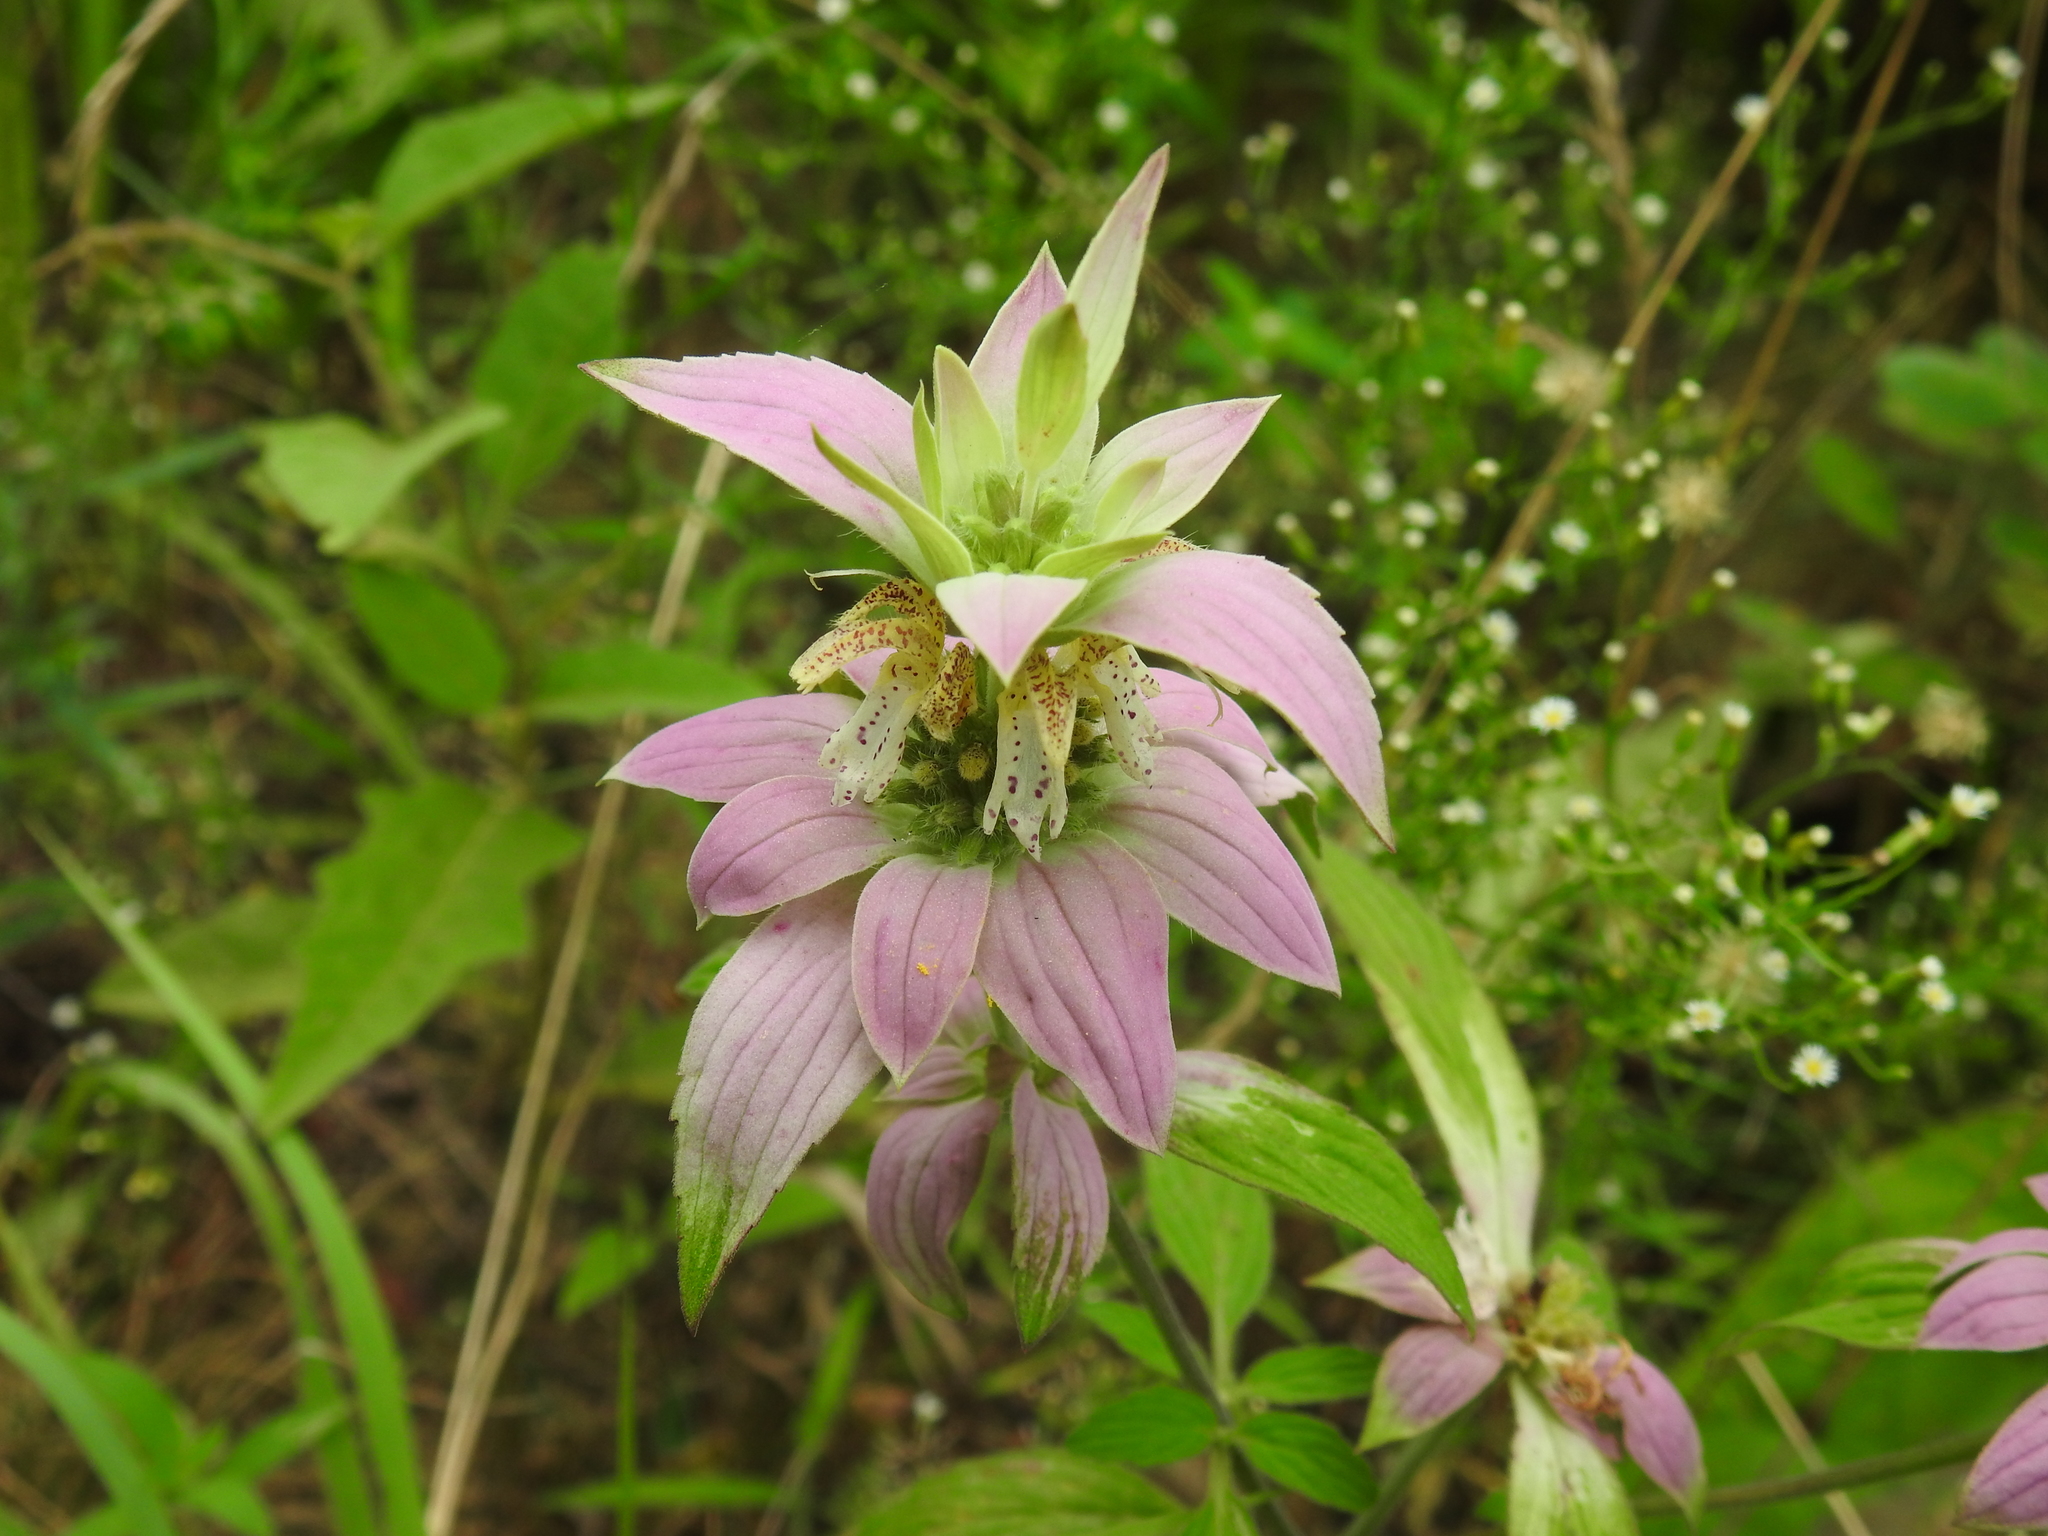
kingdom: Plantae
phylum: Tracheophyta
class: Magnoliopsida
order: Lamiales
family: Lamiaceae
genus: Monarda
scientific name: Monarda punctata
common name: Dotted monarda
